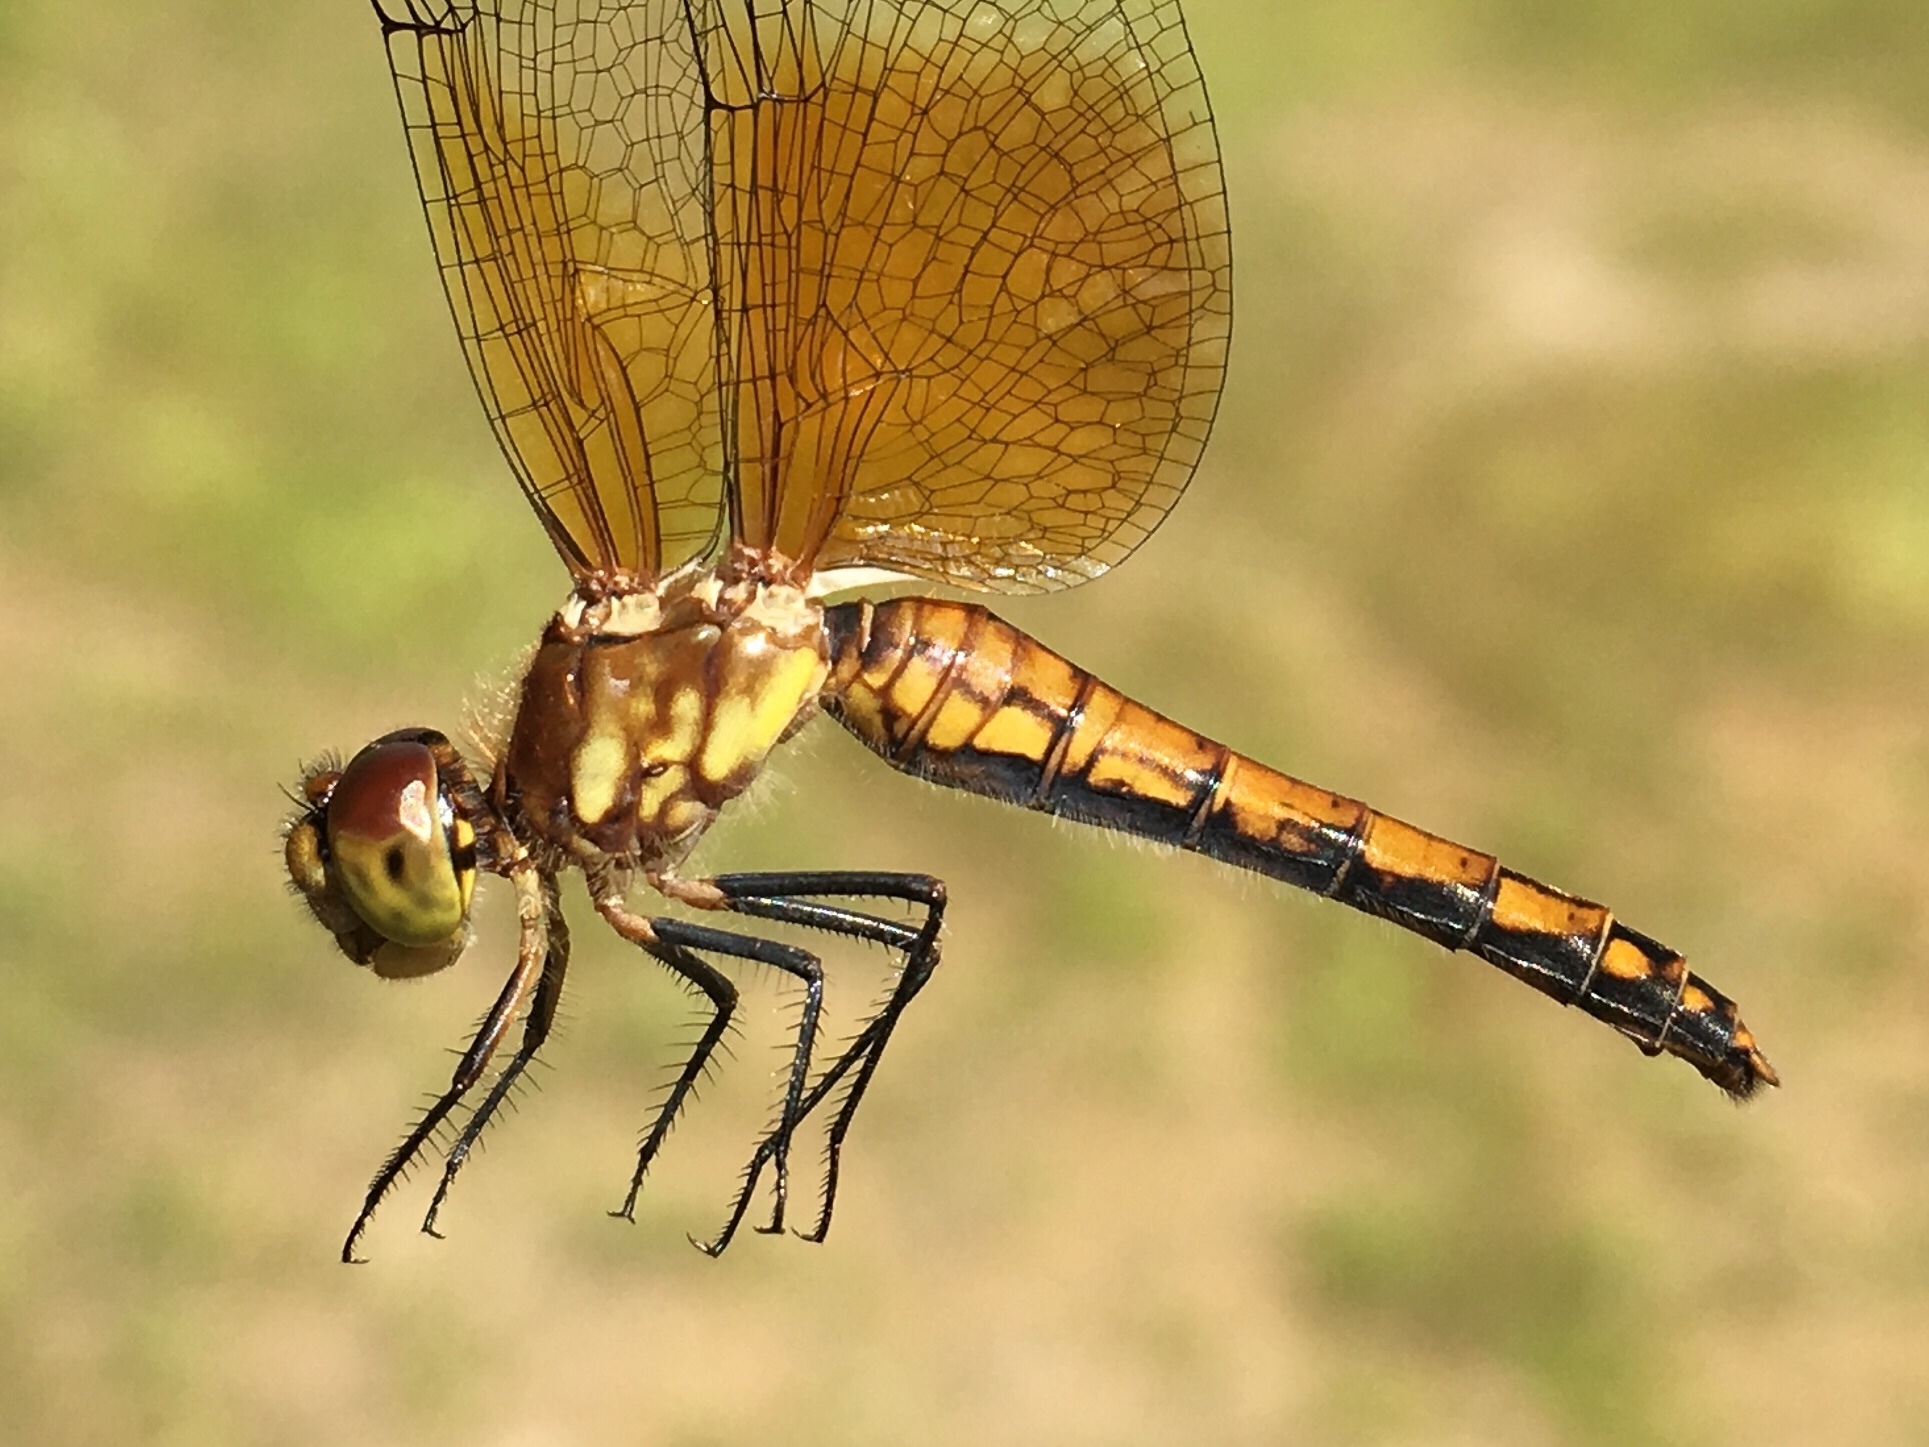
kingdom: Animalia
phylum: Arthropoda
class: Insecta
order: Odonata
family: Libellulidae
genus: Sympetrum
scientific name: Sympetrum semicinctum
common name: Band-winged meadowhawk
